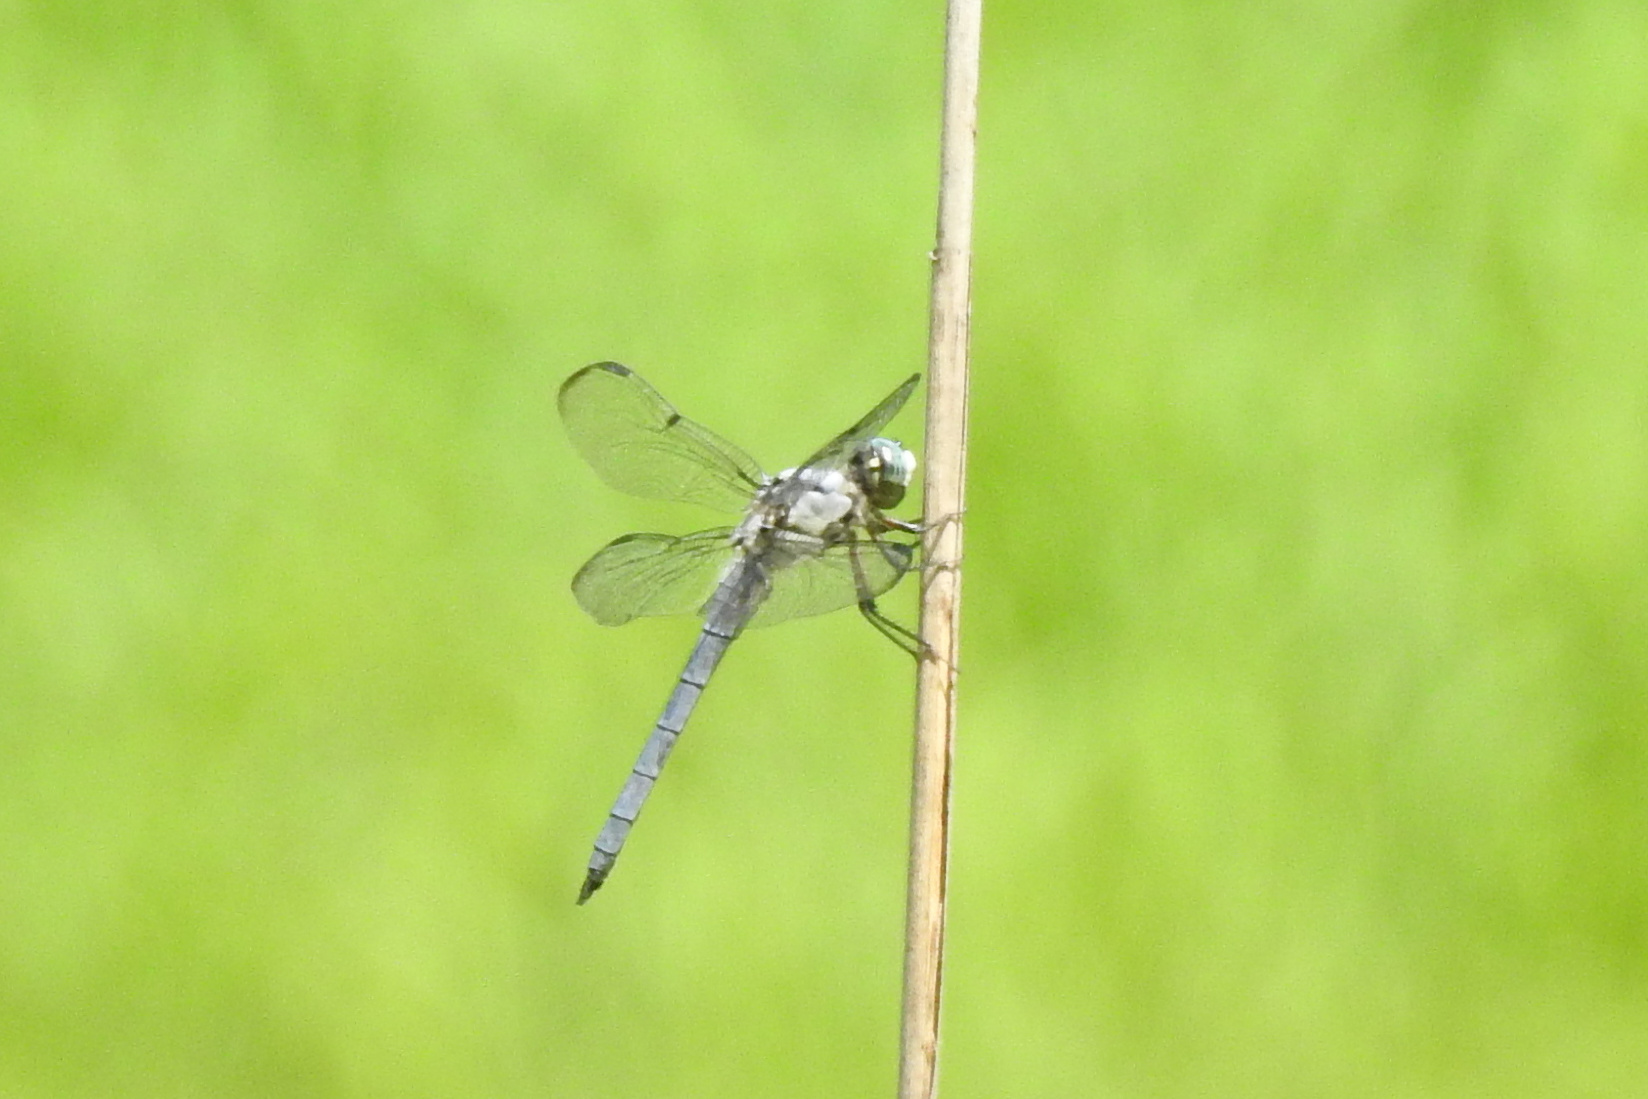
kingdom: Animalia
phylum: Arthropoda
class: Insecta
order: Odonata
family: Libellulidae
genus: Libellula
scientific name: Libellula vibrans
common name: Great blue skimmer
